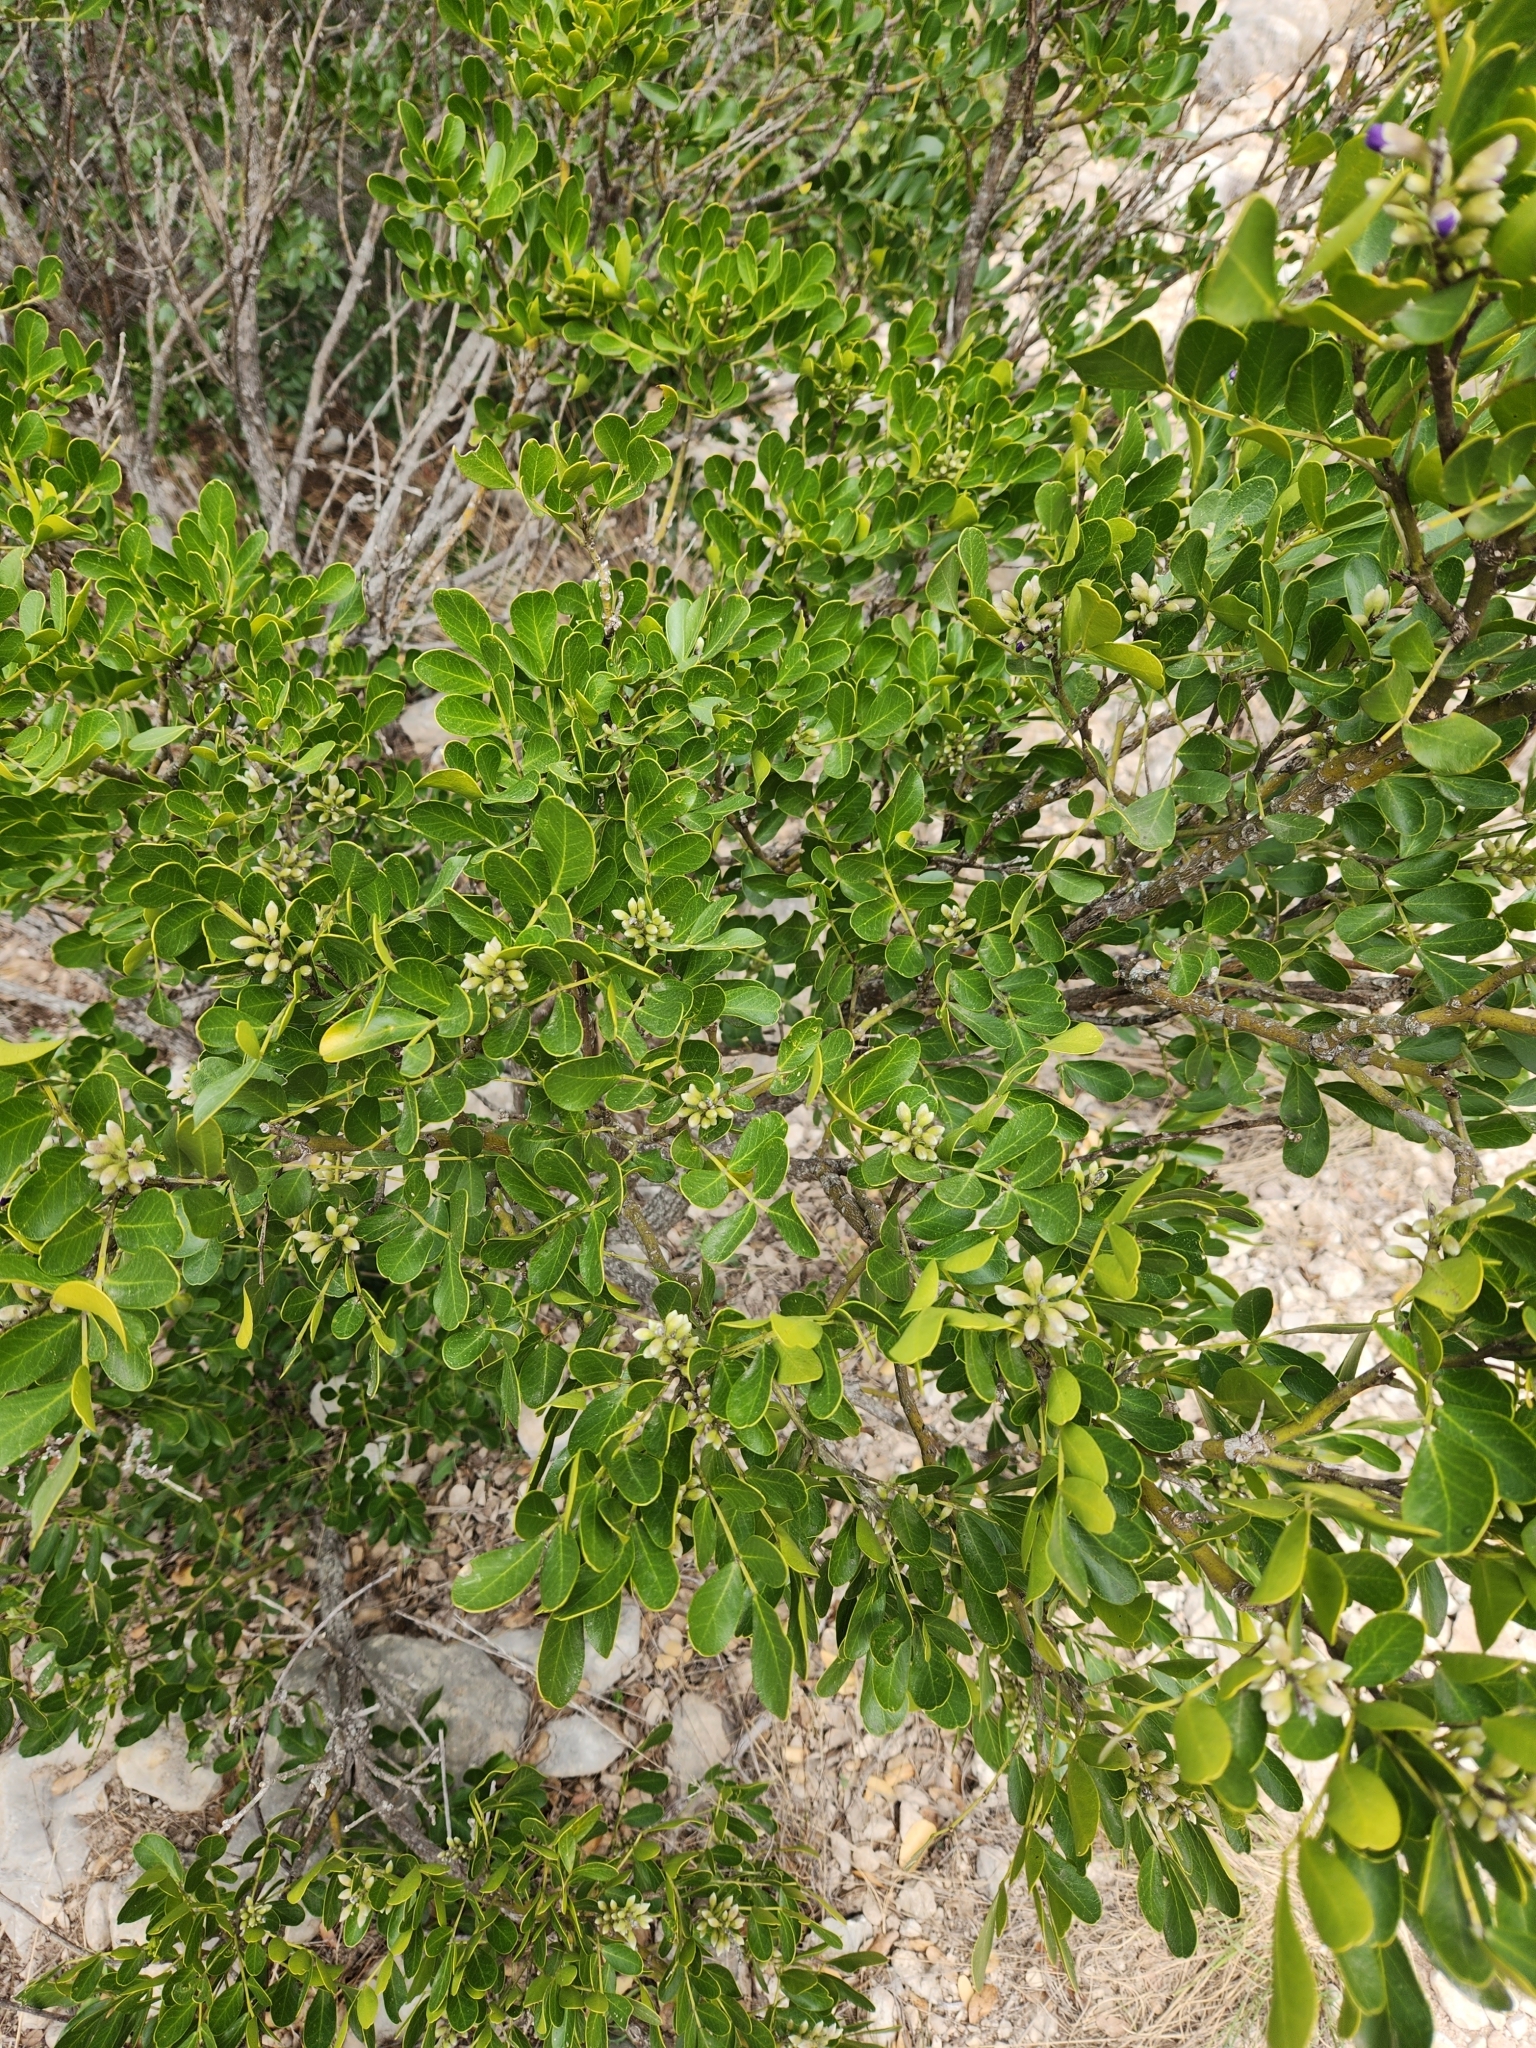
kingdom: Plantae
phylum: Tracheophyta
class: Magnoliopsida
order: Fabales
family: Fabaceae
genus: Dermatophyllum
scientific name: Dermatophyllum secundiflorum
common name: Texas-mountain-laurel
